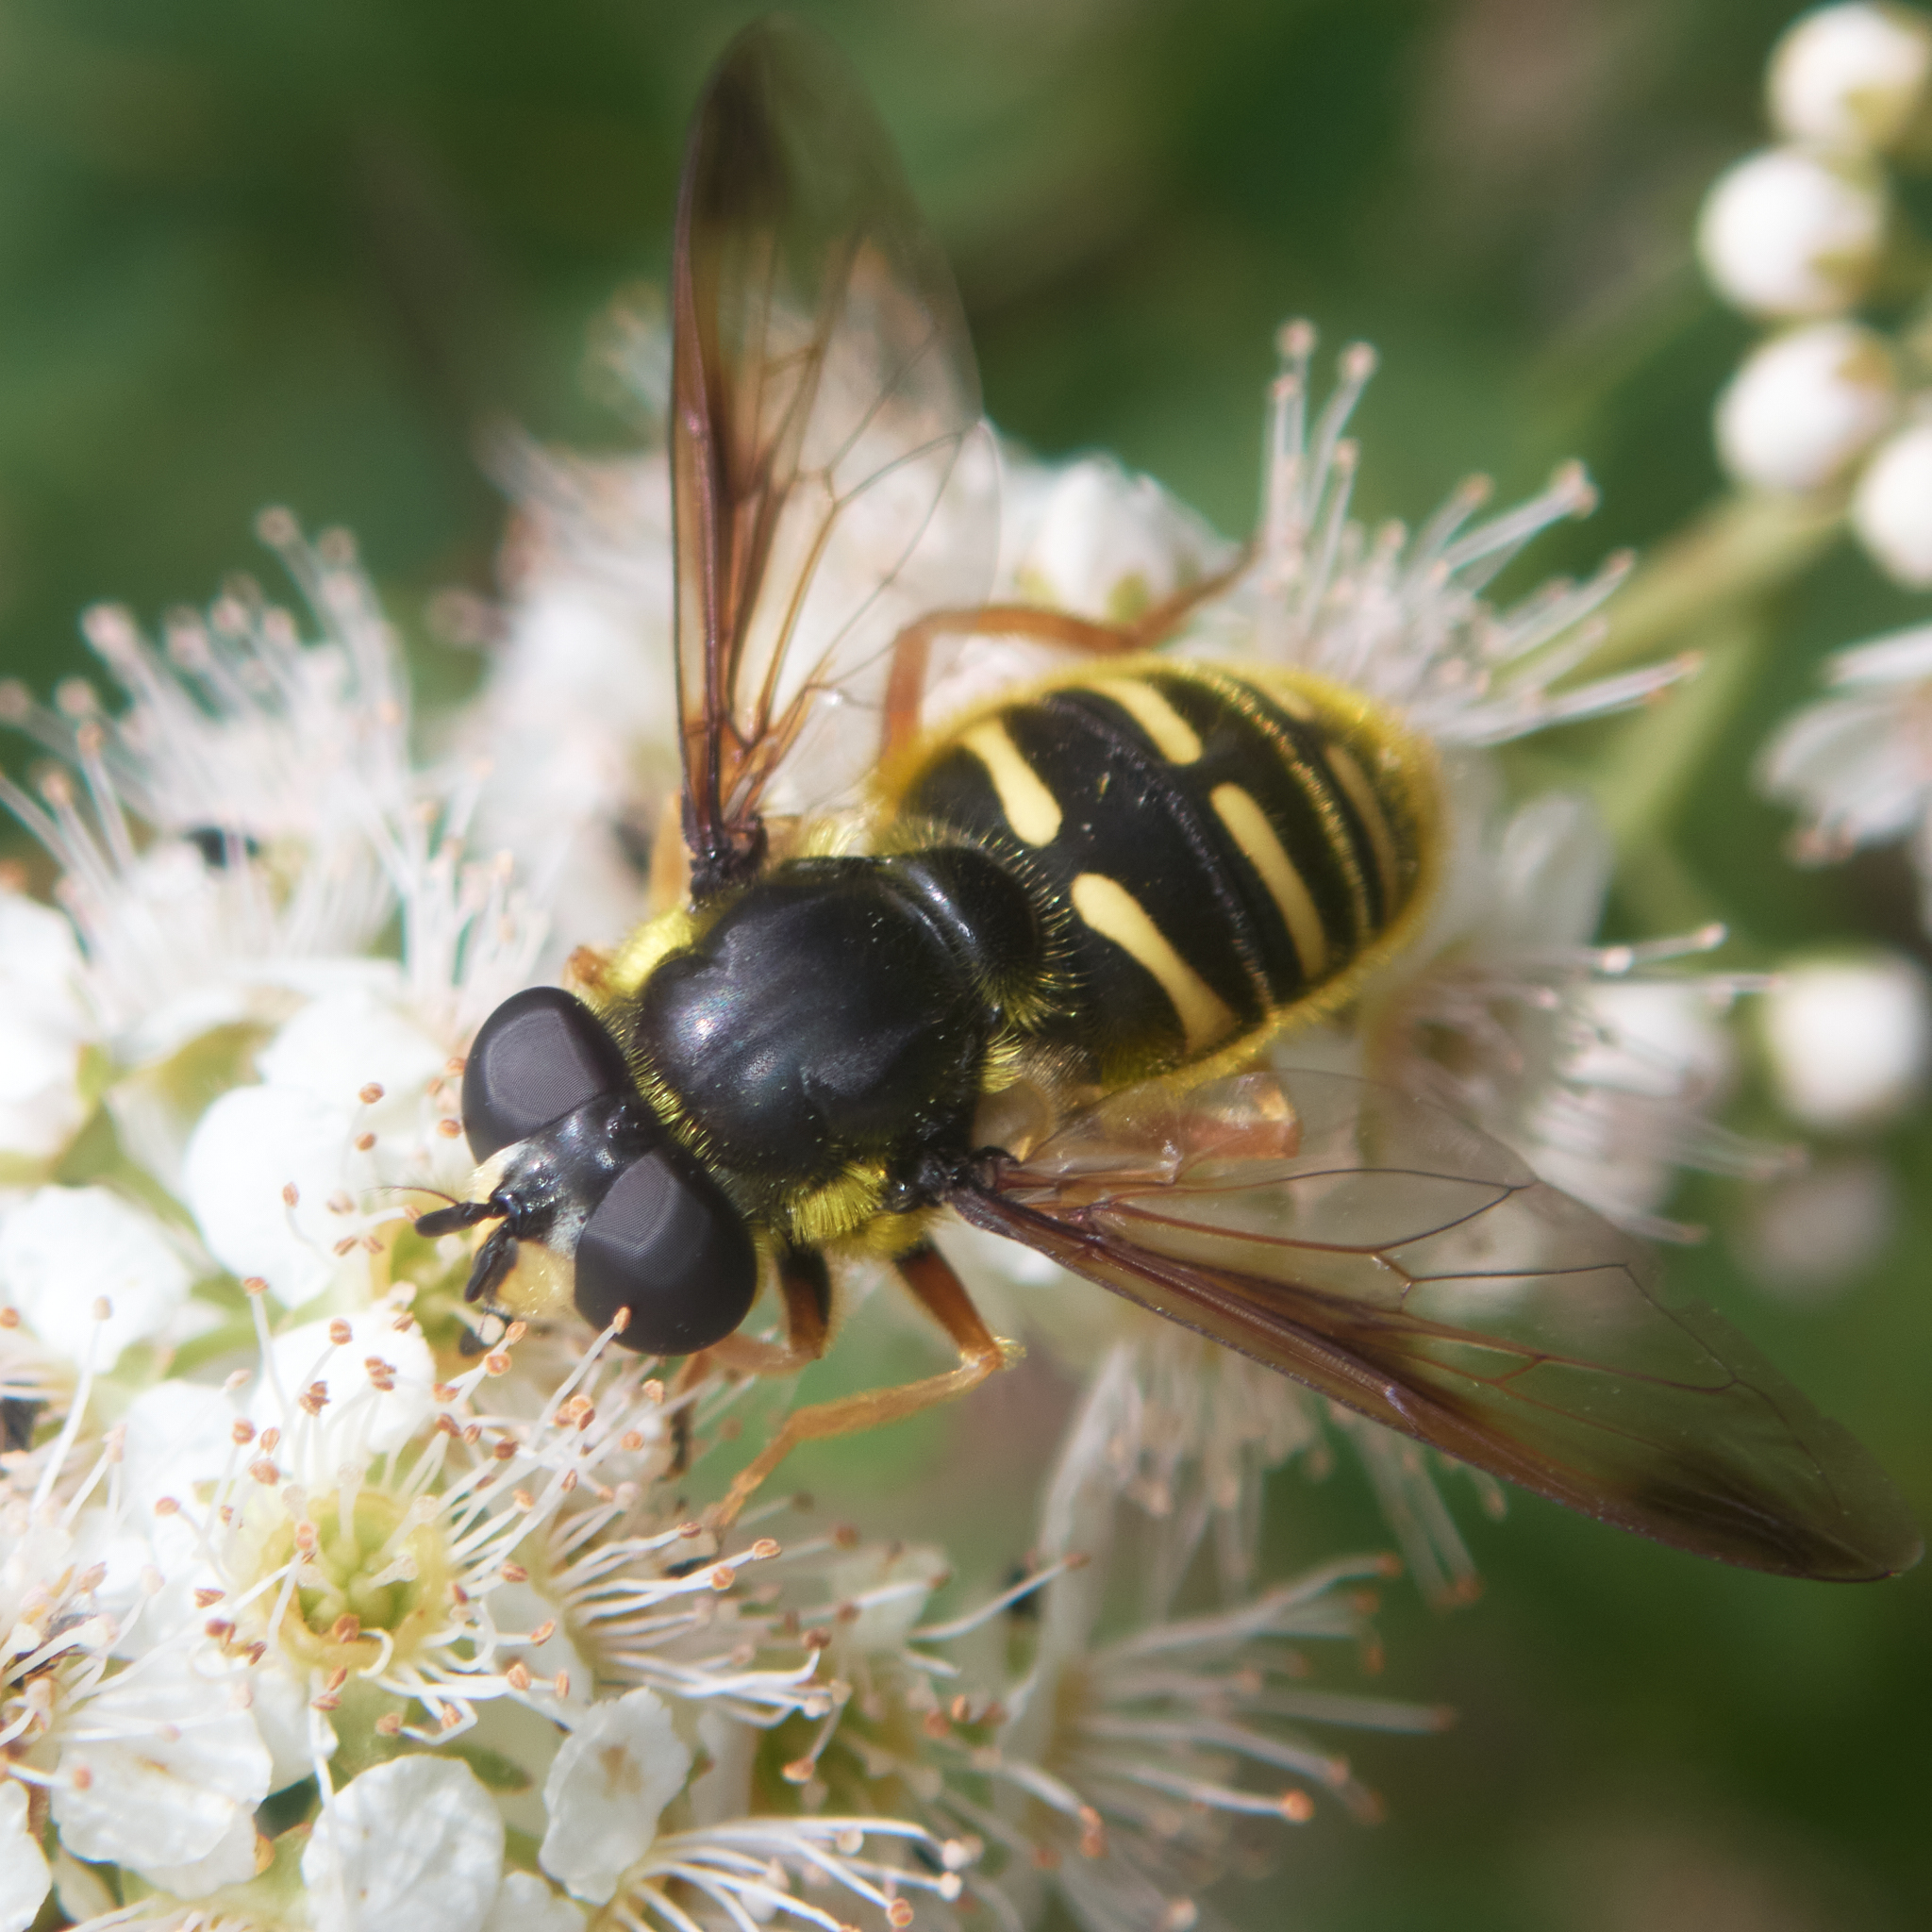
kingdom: Animalia
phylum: Arthropoda
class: Insecta
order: Diptera
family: Syrphidae
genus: Sericomyia
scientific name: Sericomyia chrysotoxoides
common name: Oblique-banded pond fly
